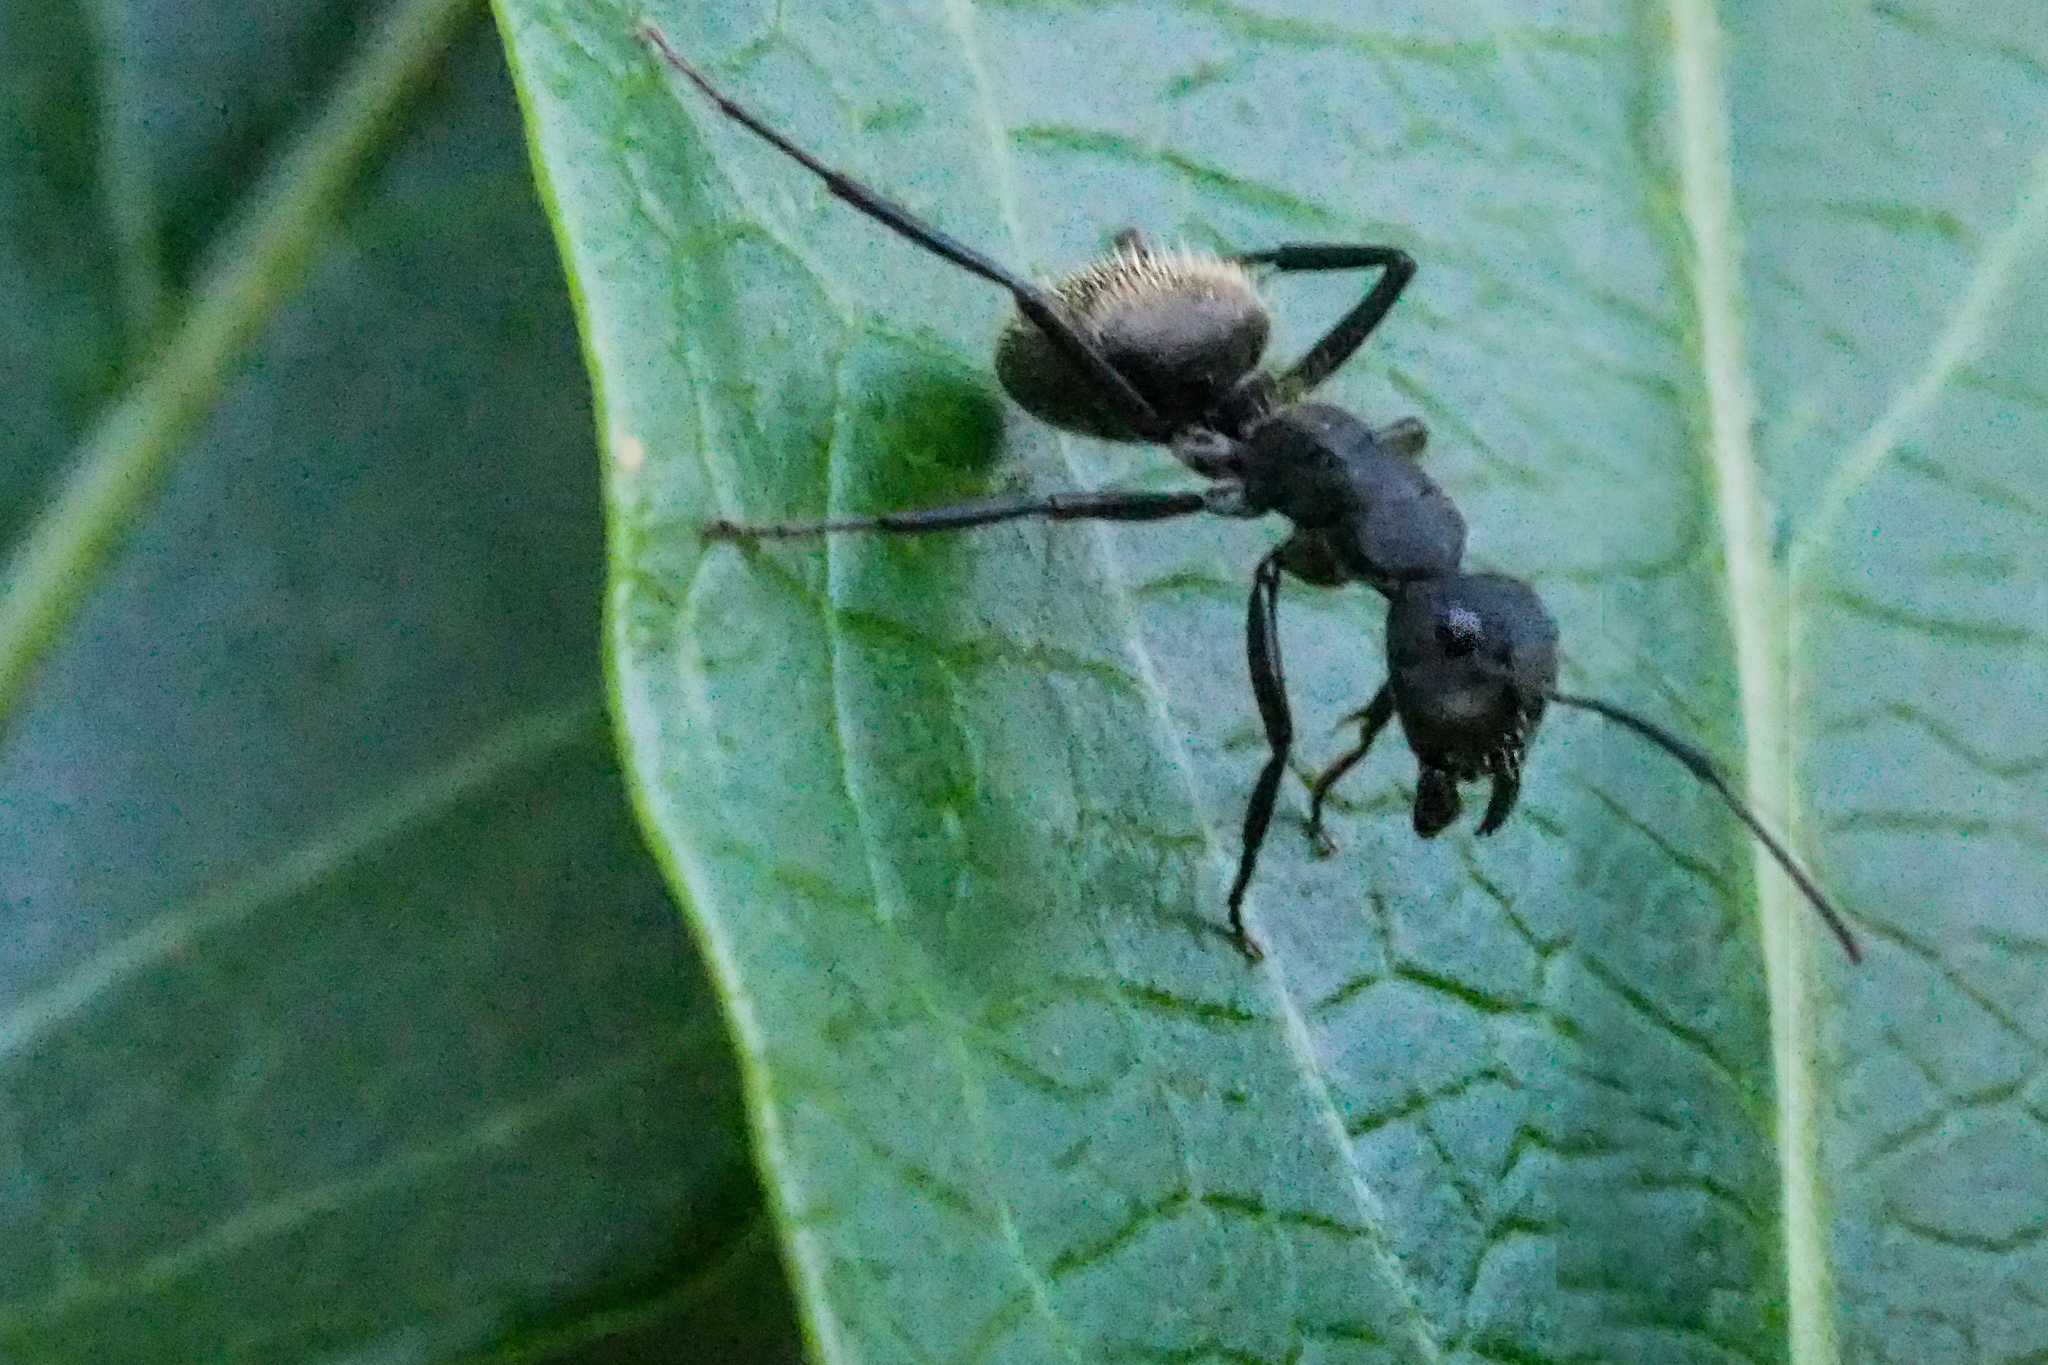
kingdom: Animalia
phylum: Arthropoda
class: Insecta
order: Hymenoptera
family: Formicidae
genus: Camponotus
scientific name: Camponotus mus
